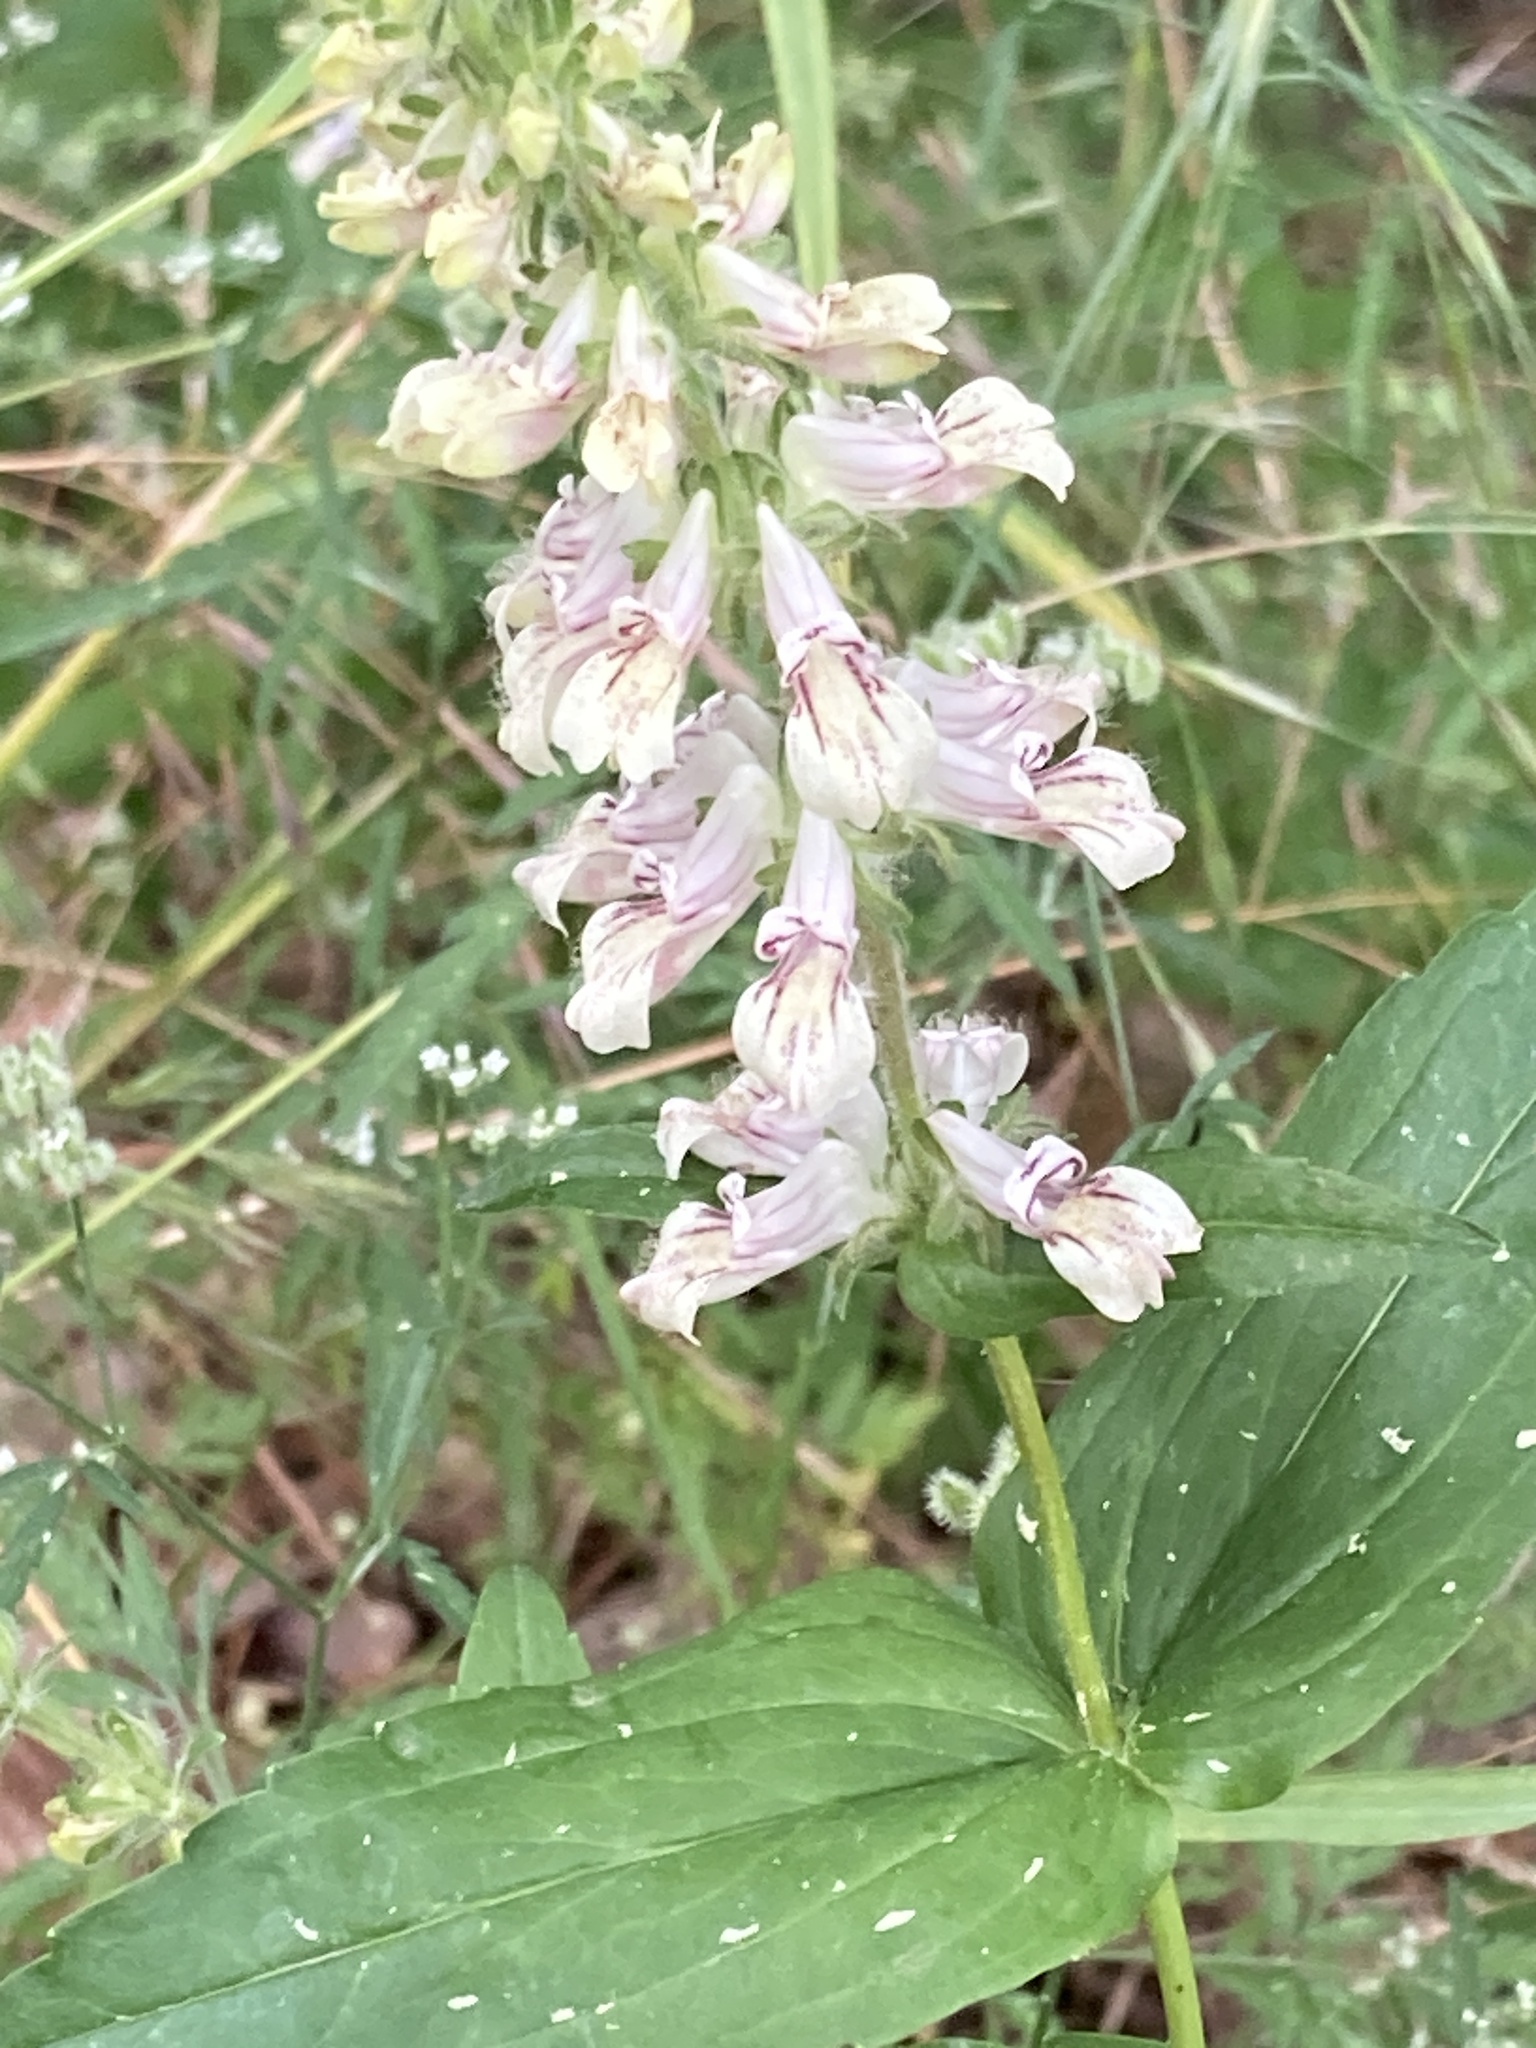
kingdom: Plantae
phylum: Tracheophyta
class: Magnoliopsida
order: Lamiales
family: Plantaginaceae
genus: Collinsia
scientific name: Collinsia tinctoria
